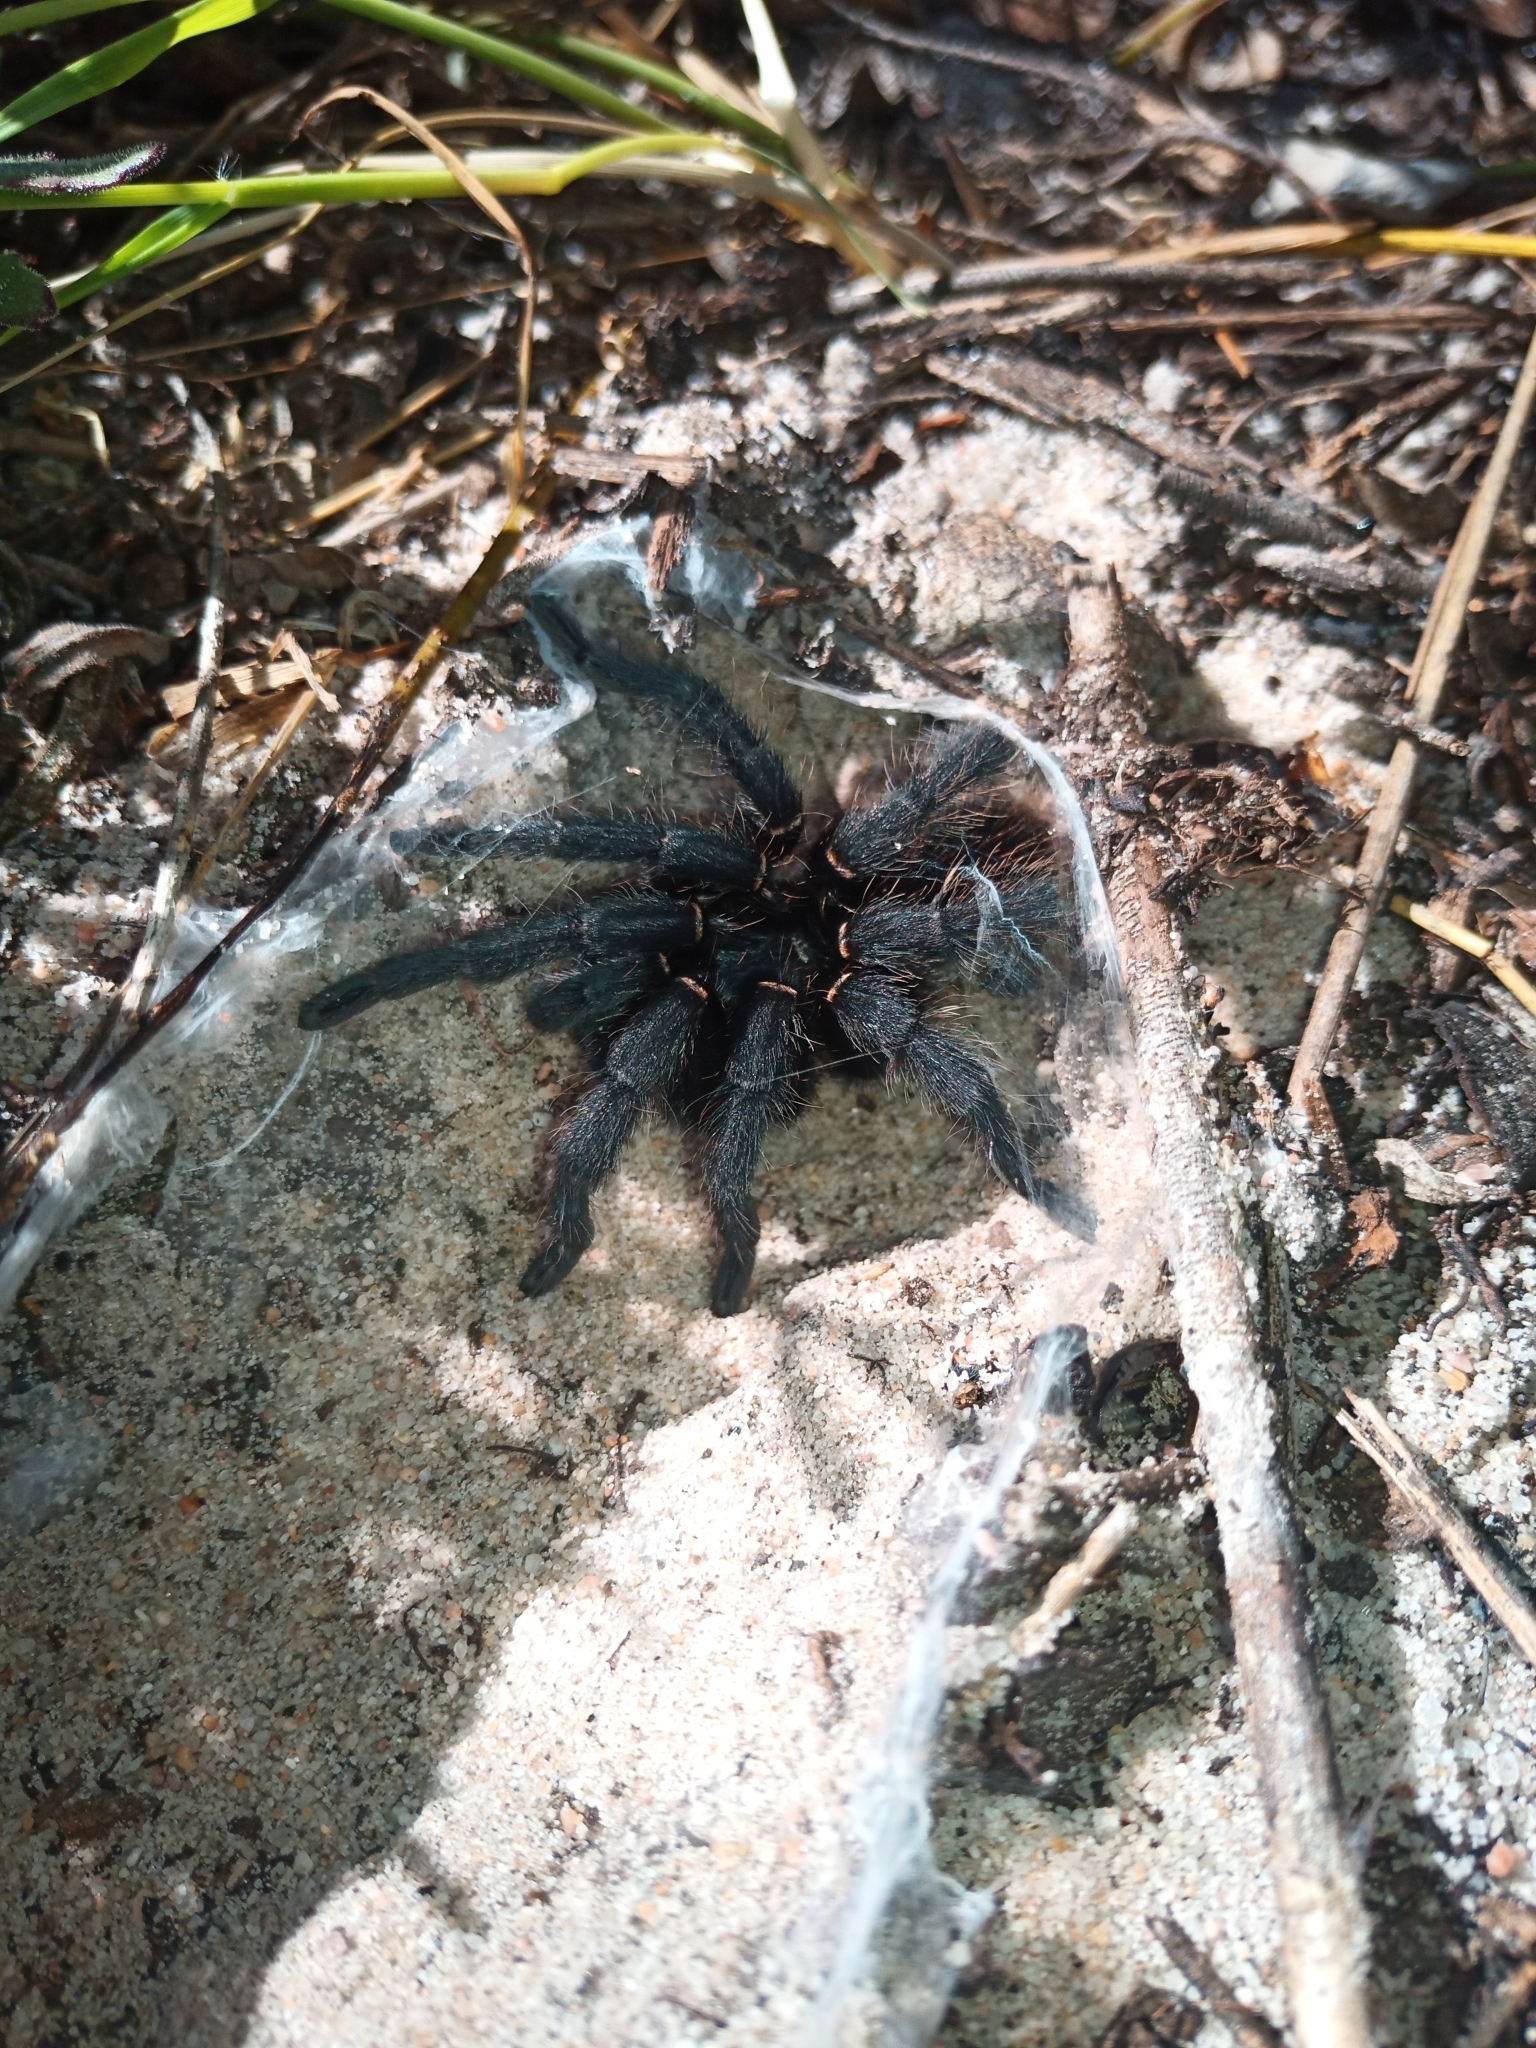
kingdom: Animalia
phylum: Arthropoda
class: Arachnida
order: Araneae
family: Theraphosidae
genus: Harpactira
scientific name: Harpactira atra
